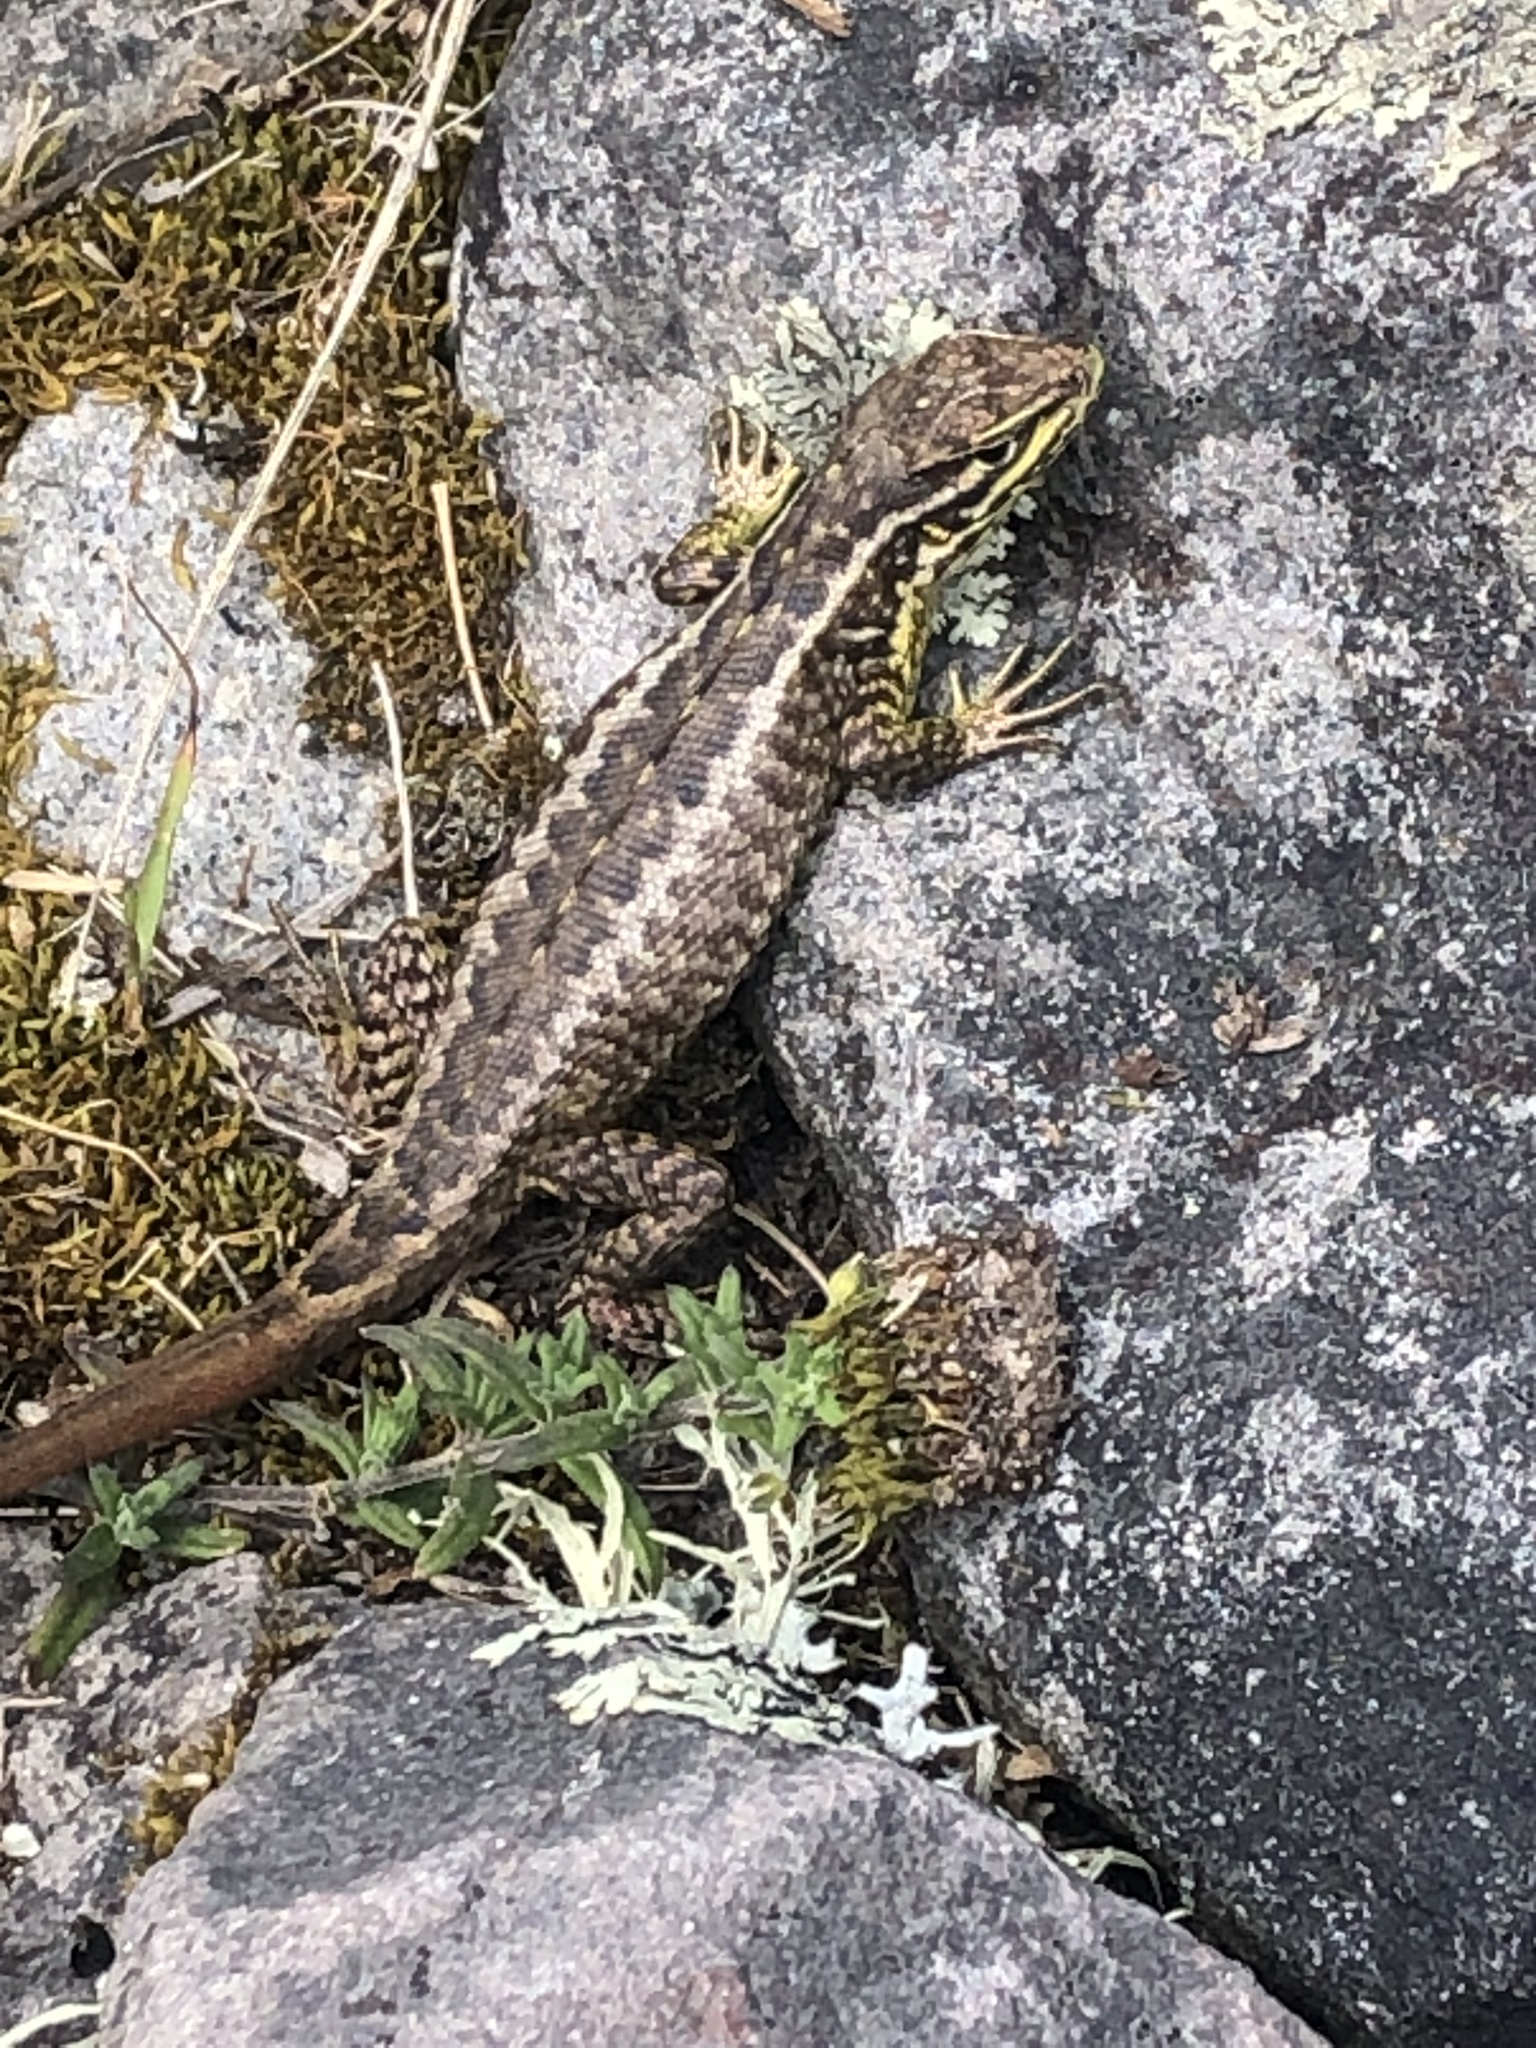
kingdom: Animalia
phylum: Chordata
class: Squamata
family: Tropiduridae
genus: Stenocercus
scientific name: Stenocercus guentheri
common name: Günther's whorltail iguana
